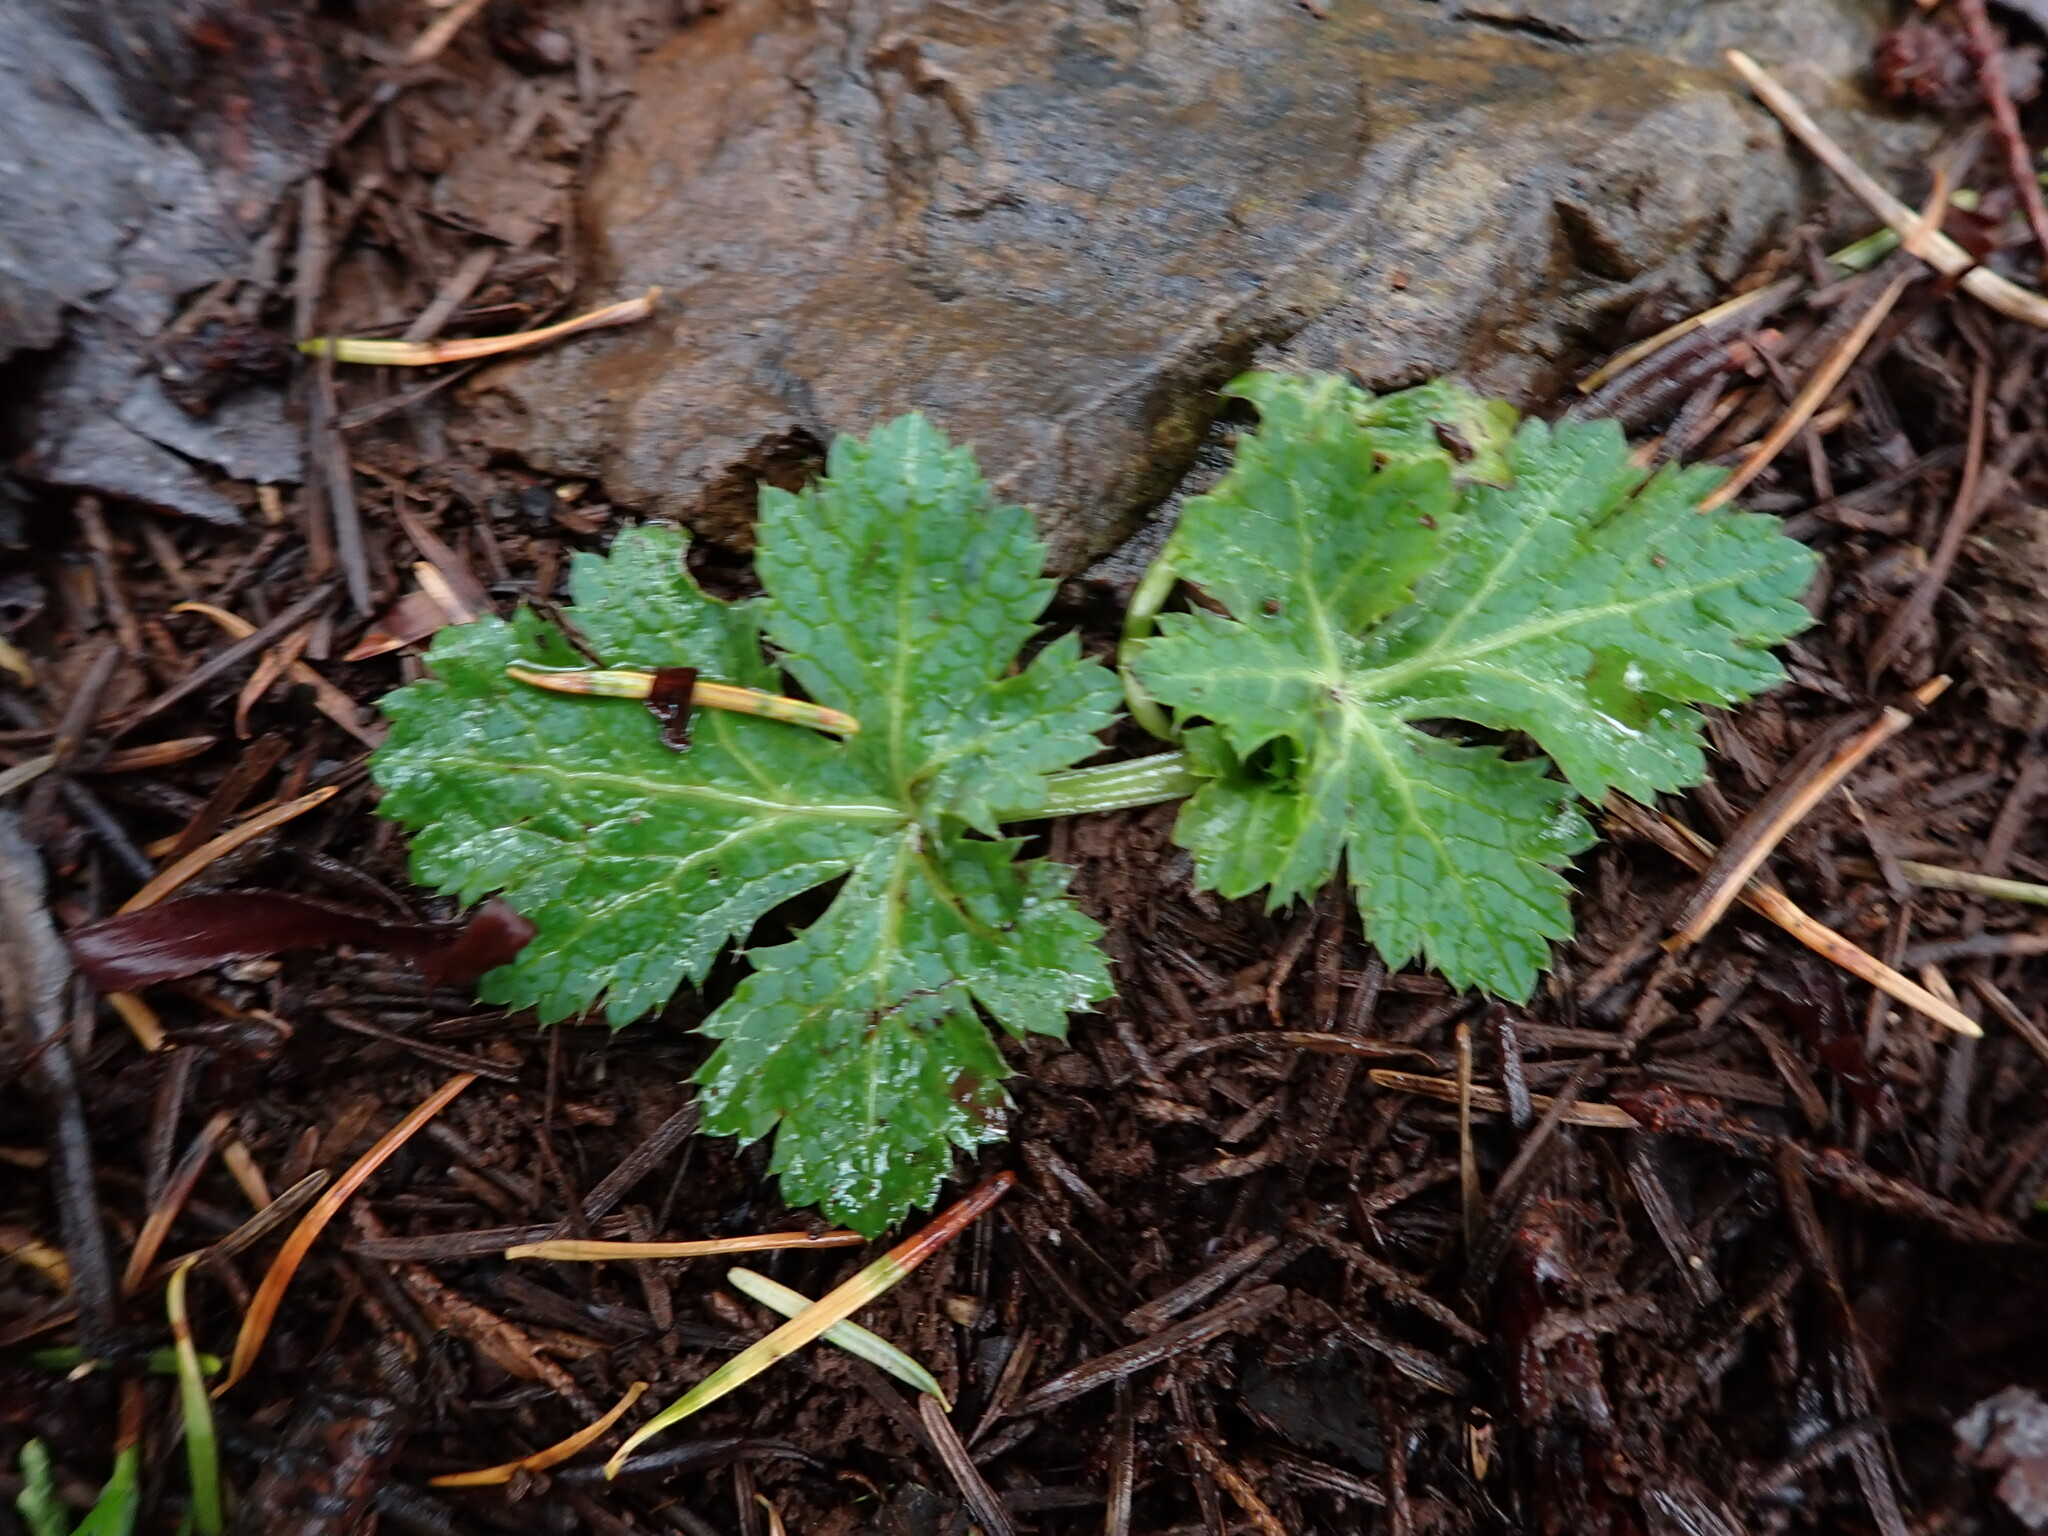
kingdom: Plantae
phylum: Tracheophyta
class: Magnoliopsida
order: Apiales
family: Apiaceae
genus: Sanicula
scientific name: Sanicula crassicaulis
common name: Western snakeroot
